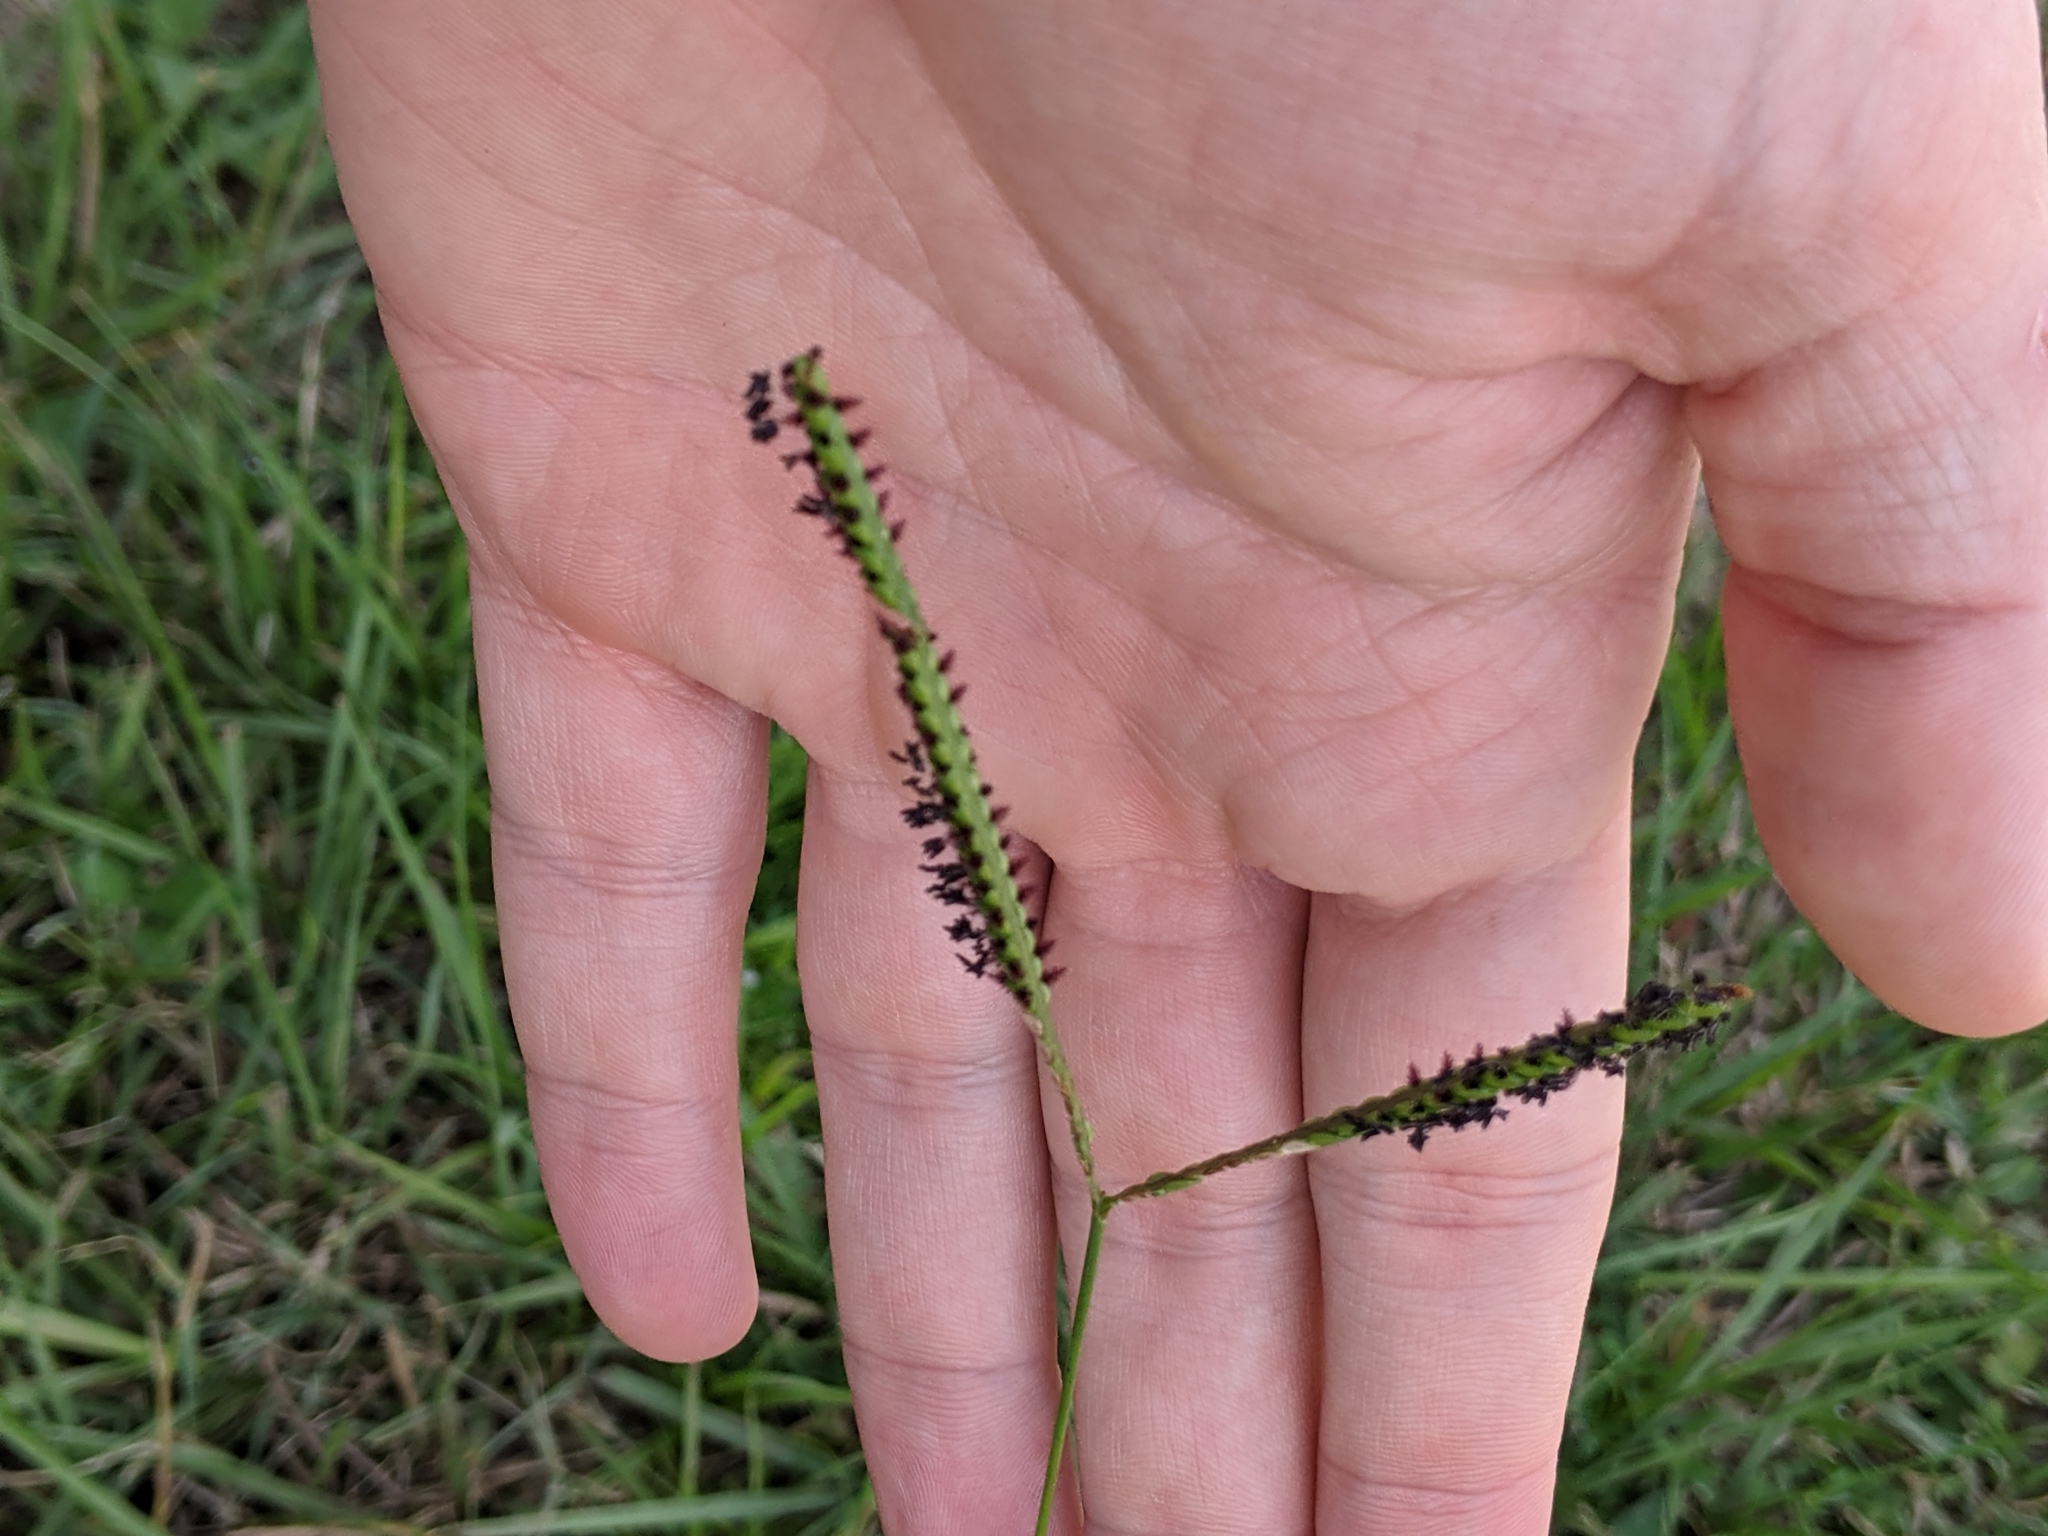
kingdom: Plantae
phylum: Tracheophyta
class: Liliopsida
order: Poales
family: Poaceae
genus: Paspalum
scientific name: Paspalum notatum
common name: Bahiagrass
